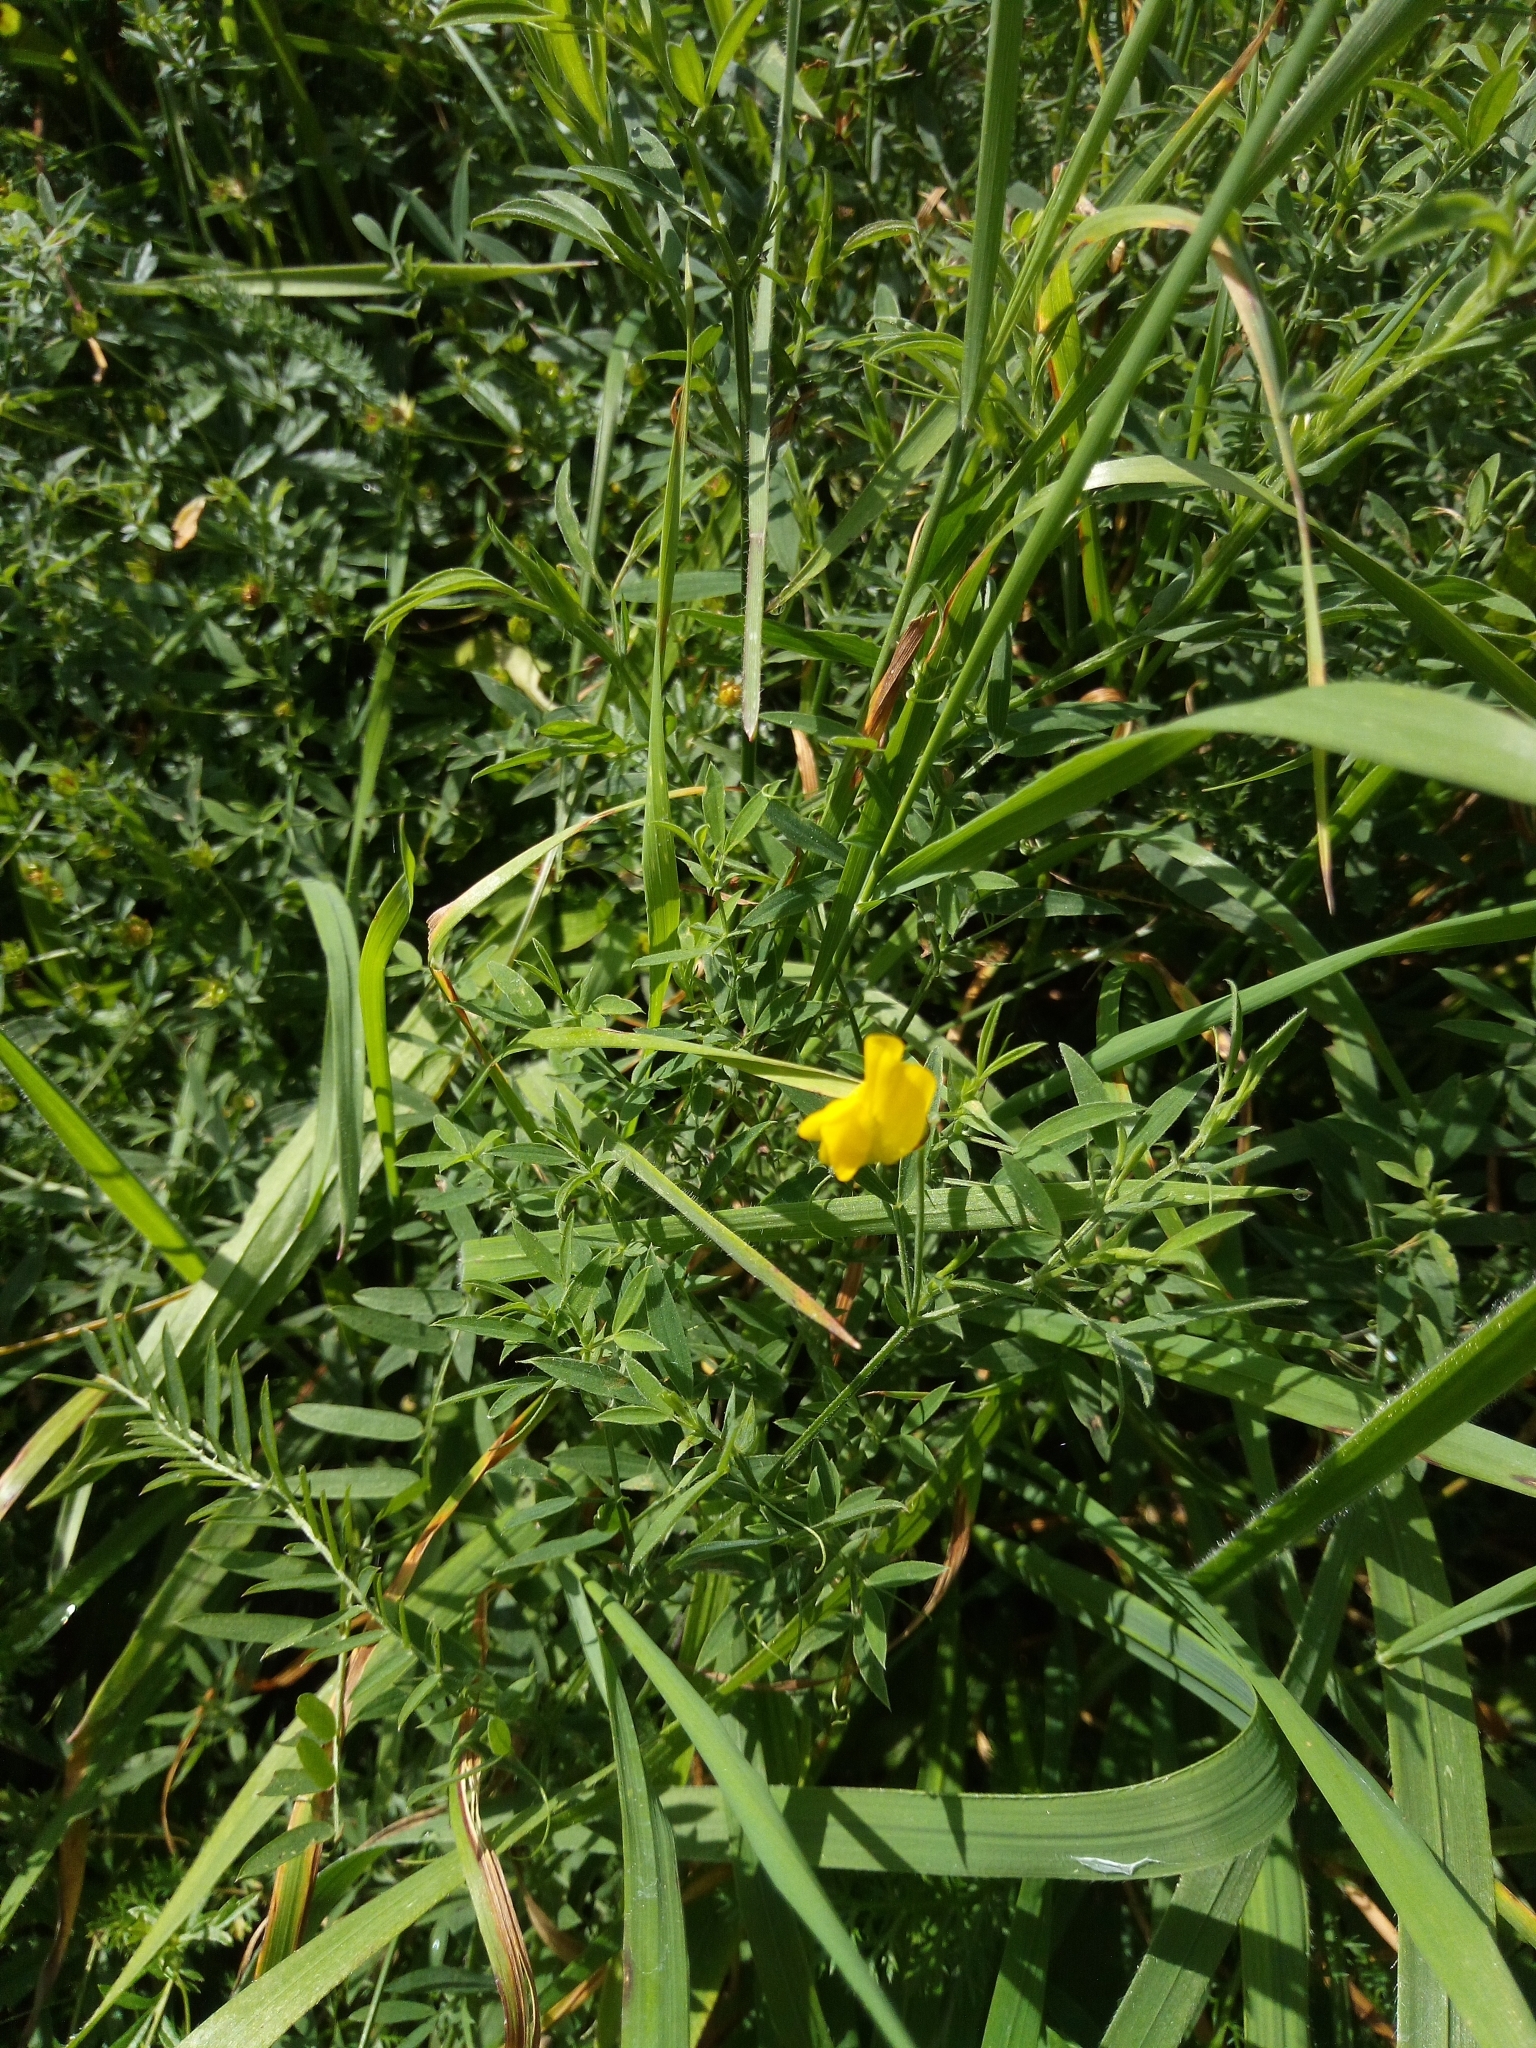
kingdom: Plantae
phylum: Tracheophyta
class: Magnoliopsida
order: Fabales
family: Fabaceae
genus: Lathyrus
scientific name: Lathyrus pratensis
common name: Meadow vetchling
